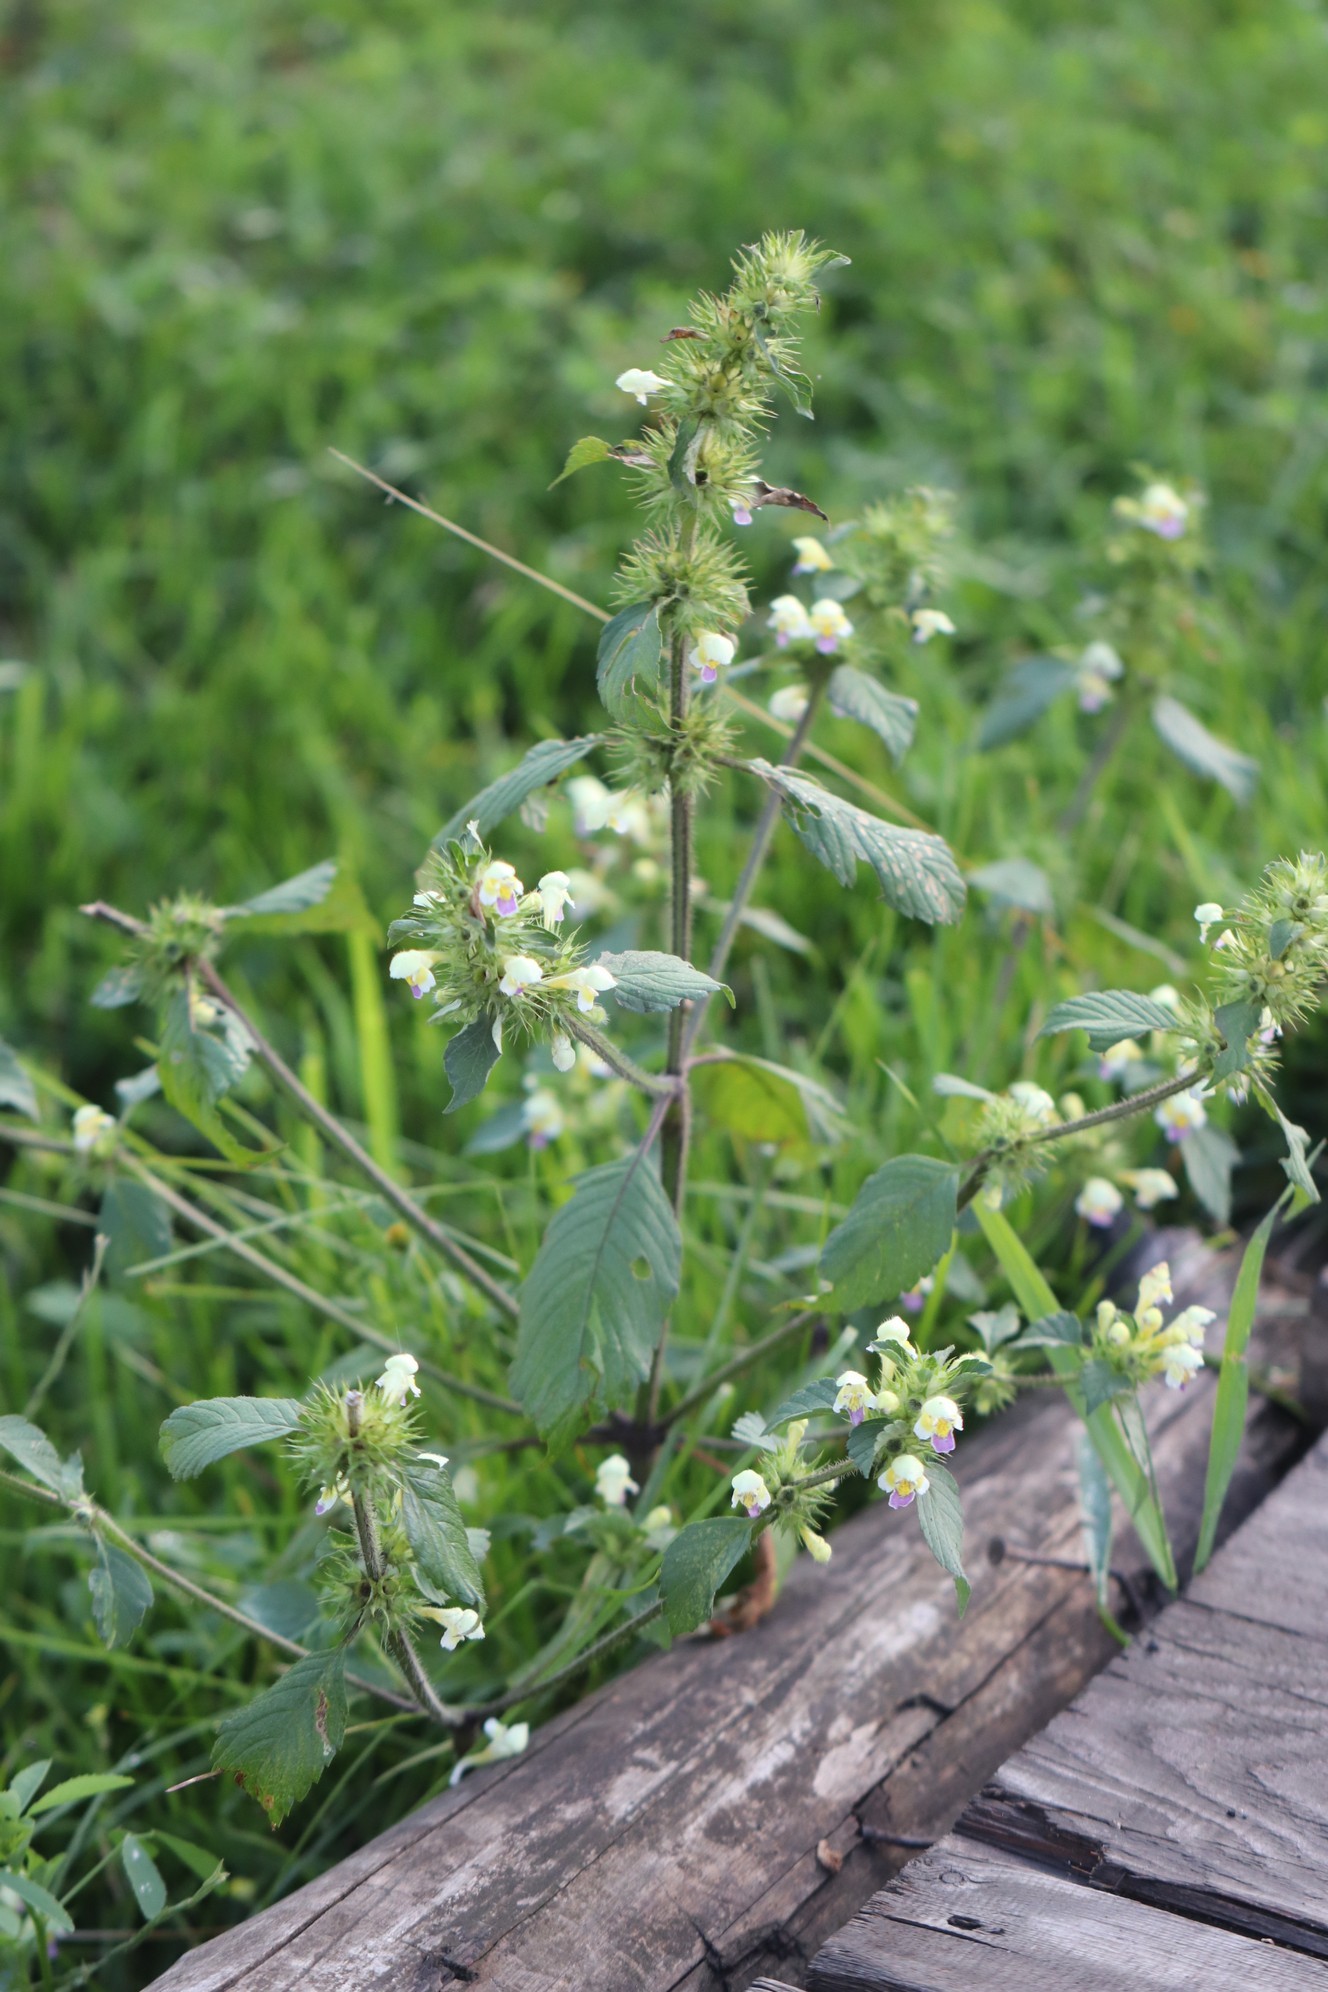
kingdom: Plantae
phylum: Tracheophyta
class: Magnoliopsida
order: Lamiales
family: Lamiaceae
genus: Galeopsis
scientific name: Galeopsis speciosa
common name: Large-flowered hemp-nettle
